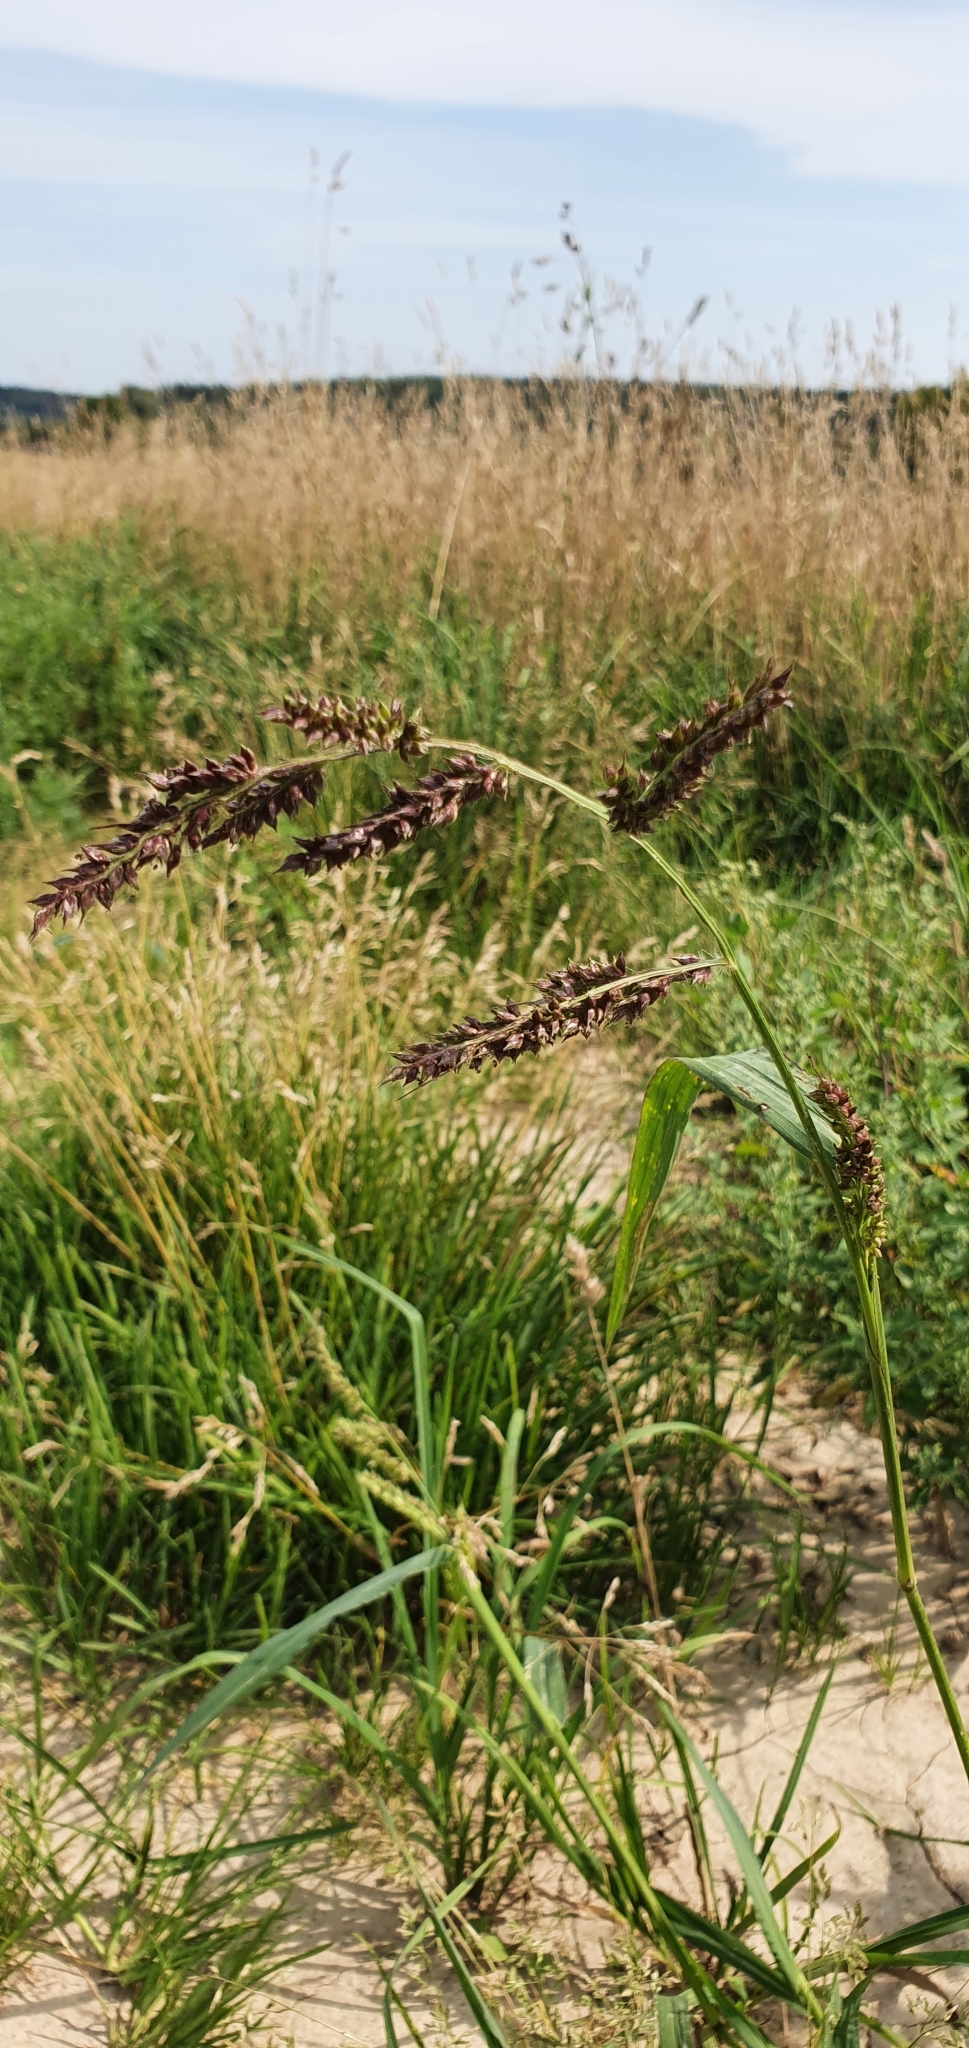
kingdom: Plantae
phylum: Tracheophyta
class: Liliopsida
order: Poales
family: Poaceae
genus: Echinochloa
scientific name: Echinochloa crus-galli
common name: Cockspur
